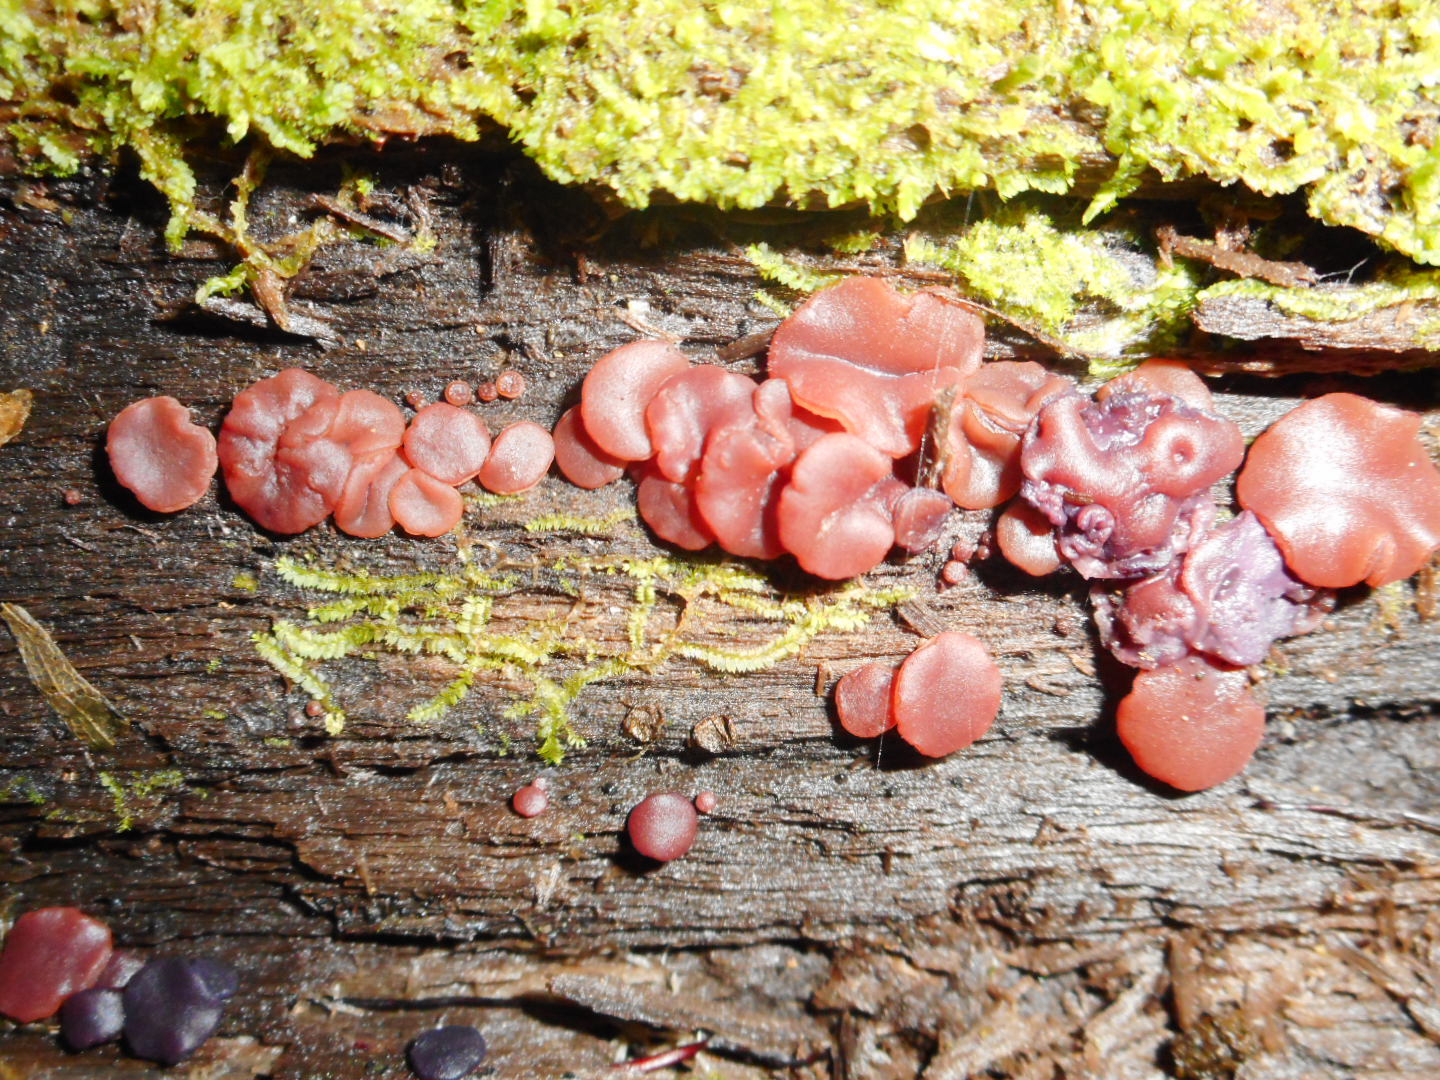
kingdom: Fungi
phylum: Ascomycota
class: Leotiomycetes
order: Helotiales
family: Gelatinodiscaceae
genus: Ascocoryne
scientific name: Ascocoryne
